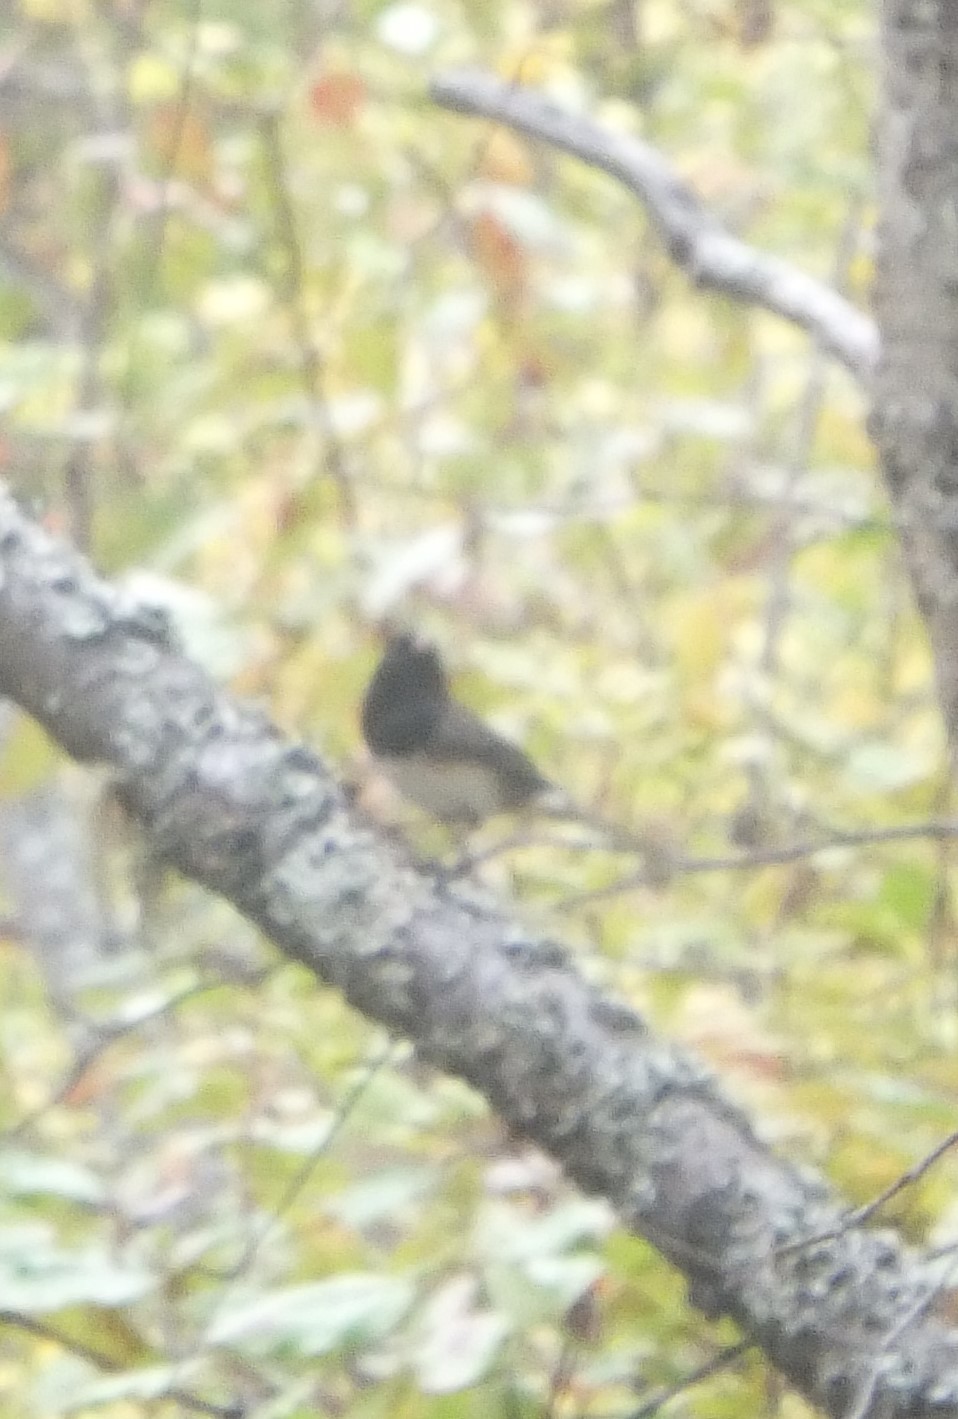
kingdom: Animalia
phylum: Chordata
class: Aves
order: Passeriformes
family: Passerellidae
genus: Junco
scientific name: Junco hyemalis
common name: Dark-eyed junco
